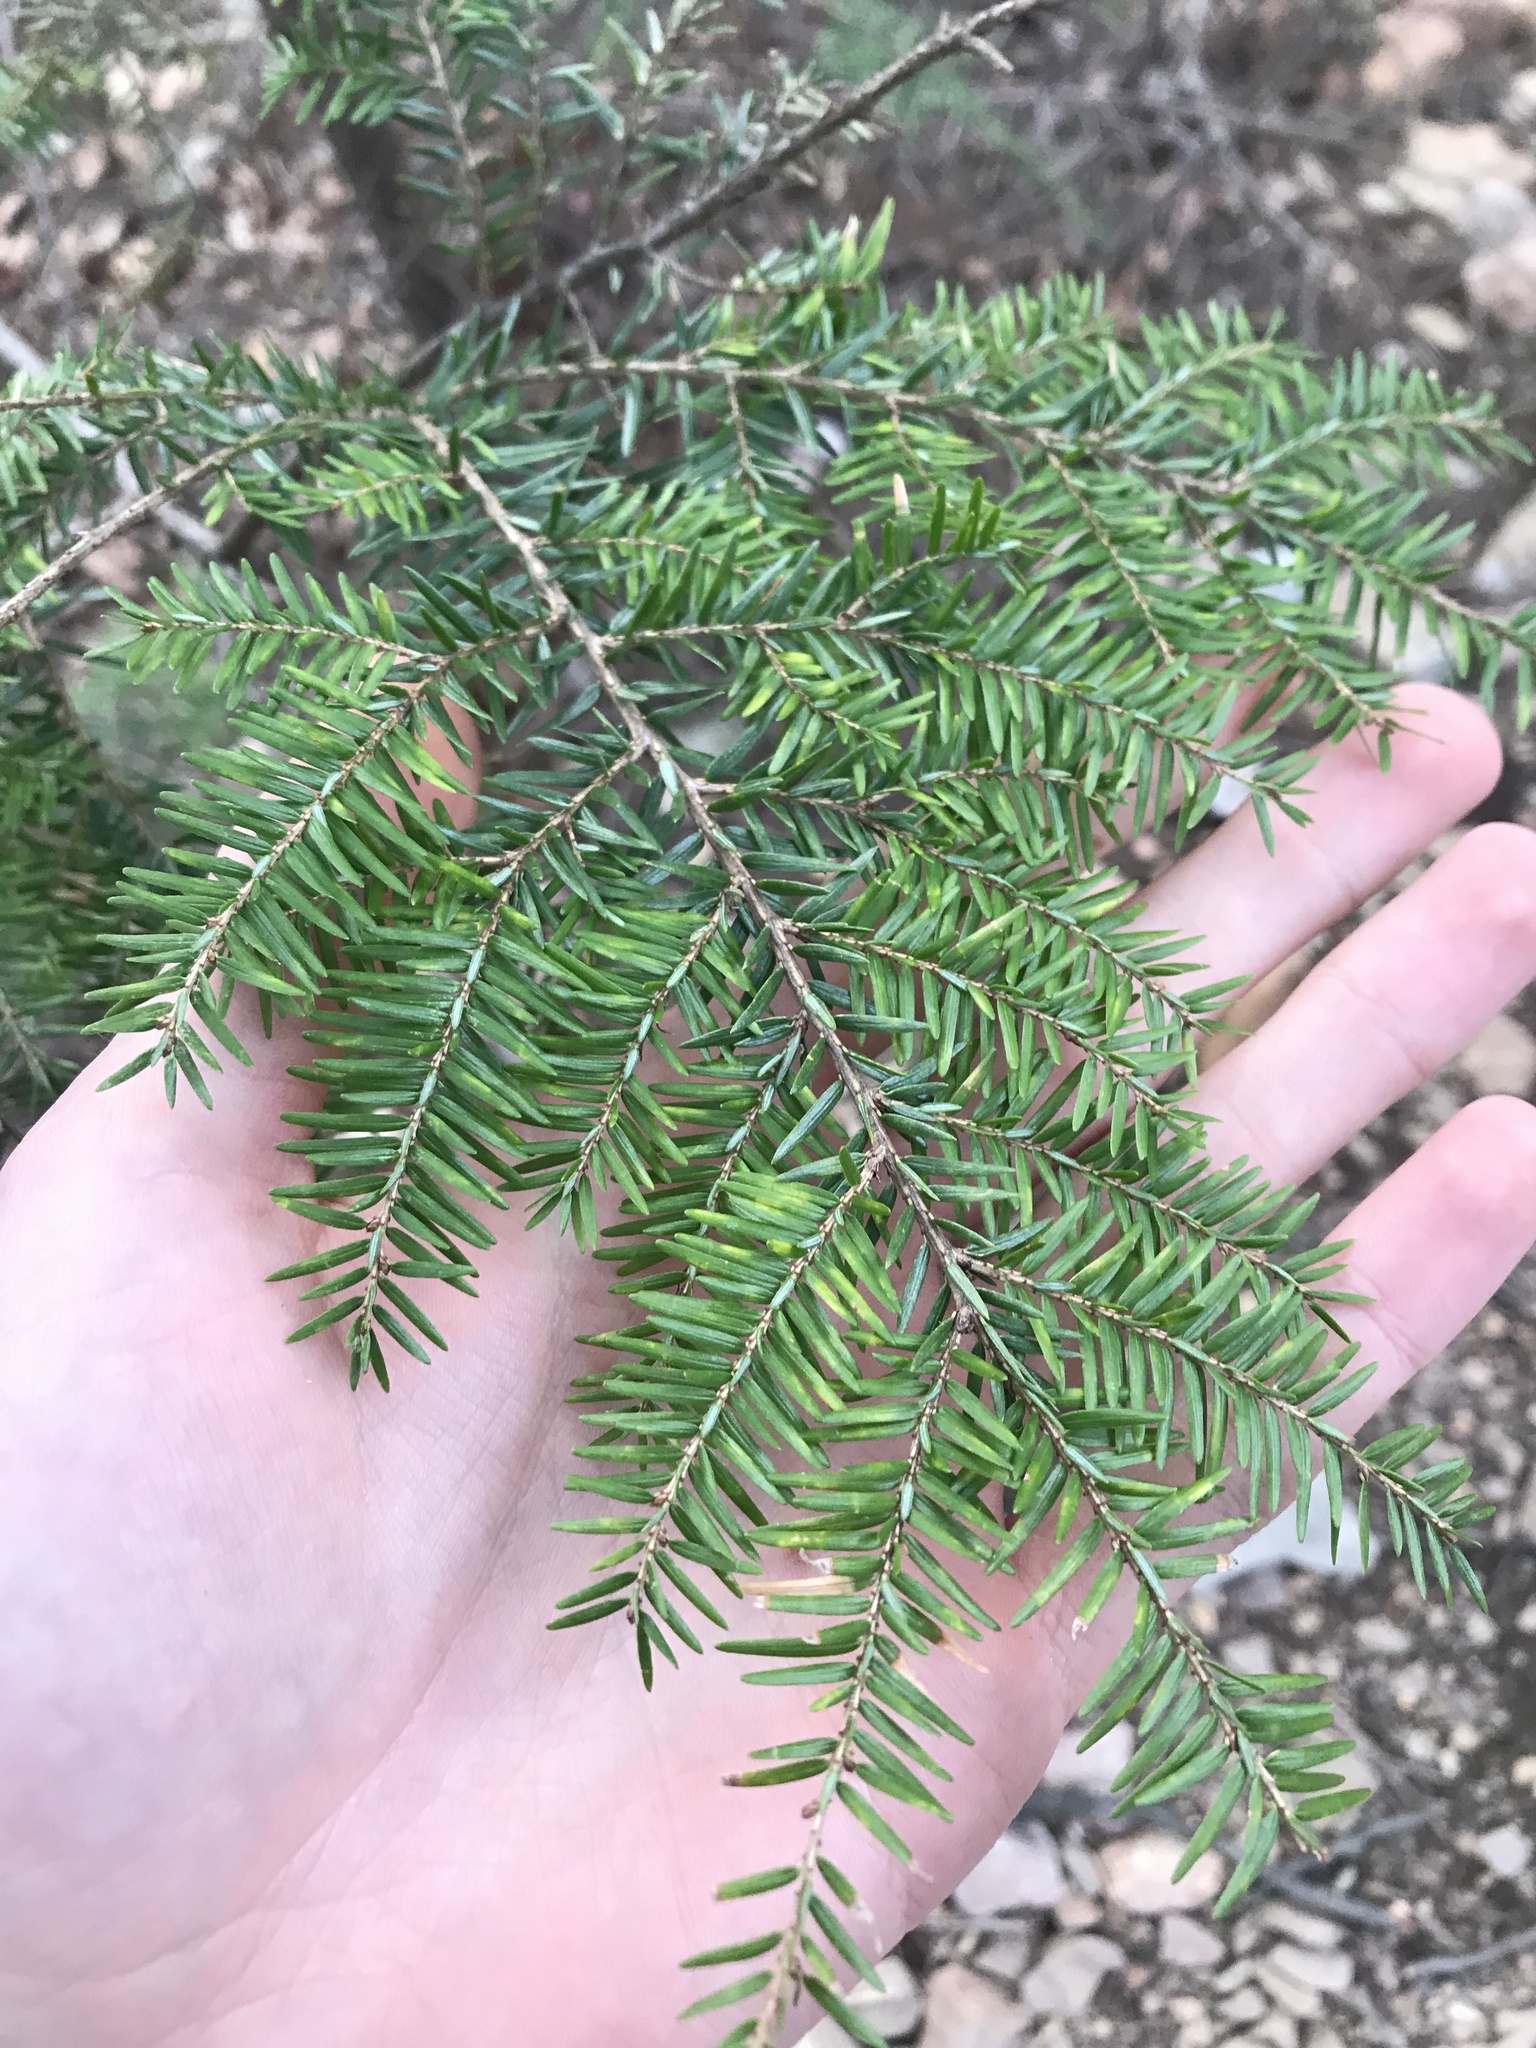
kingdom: Plantae
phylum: Tracheophyta
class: Pinopsida
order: Pinales
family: Pinaceae
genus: Tsuga
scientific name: Tsuga canadensis
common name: Eastern hemlock
